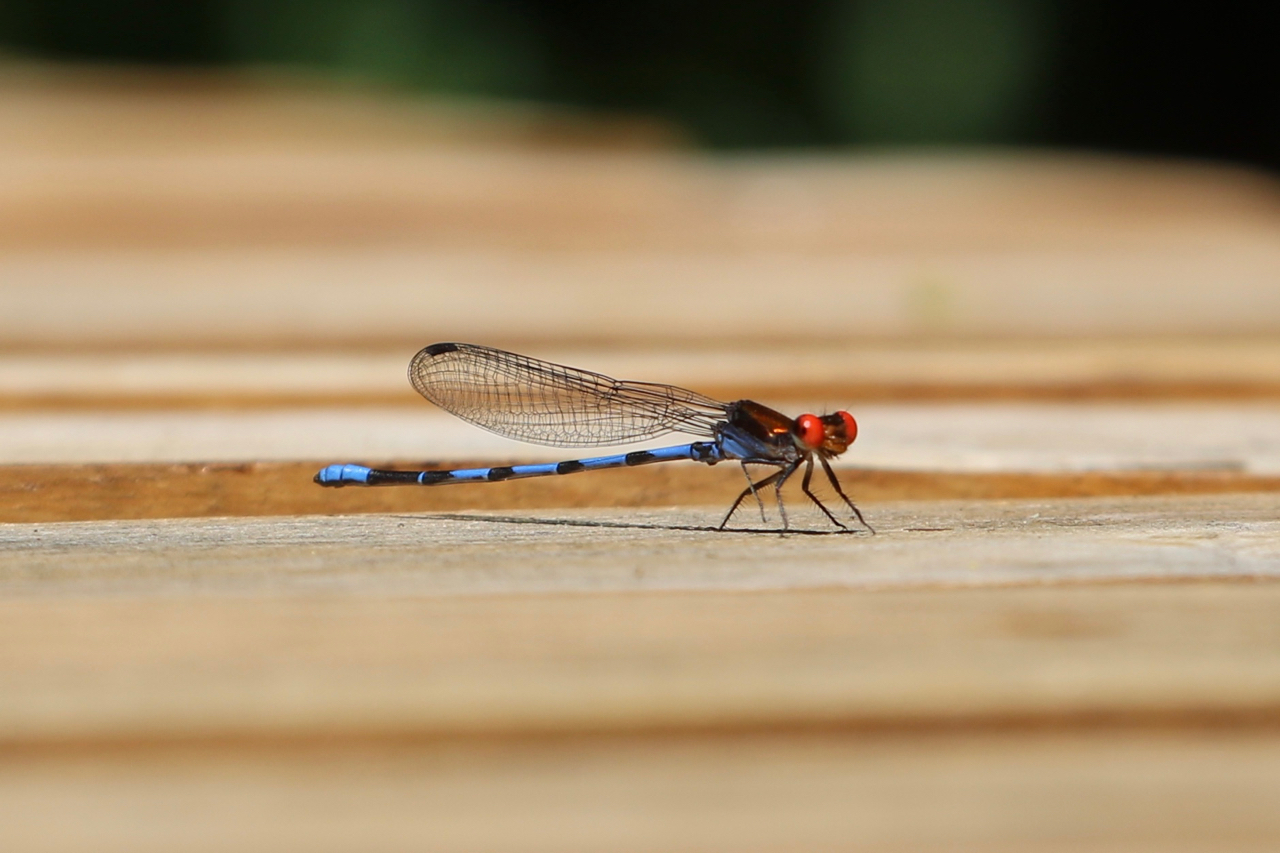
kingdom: Animalia
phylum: Arthropoda
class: Insecta
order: Odonata
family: Coenagrionidae
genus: Argia
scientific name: Argia oenea
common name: Fiery-eyed dancer
